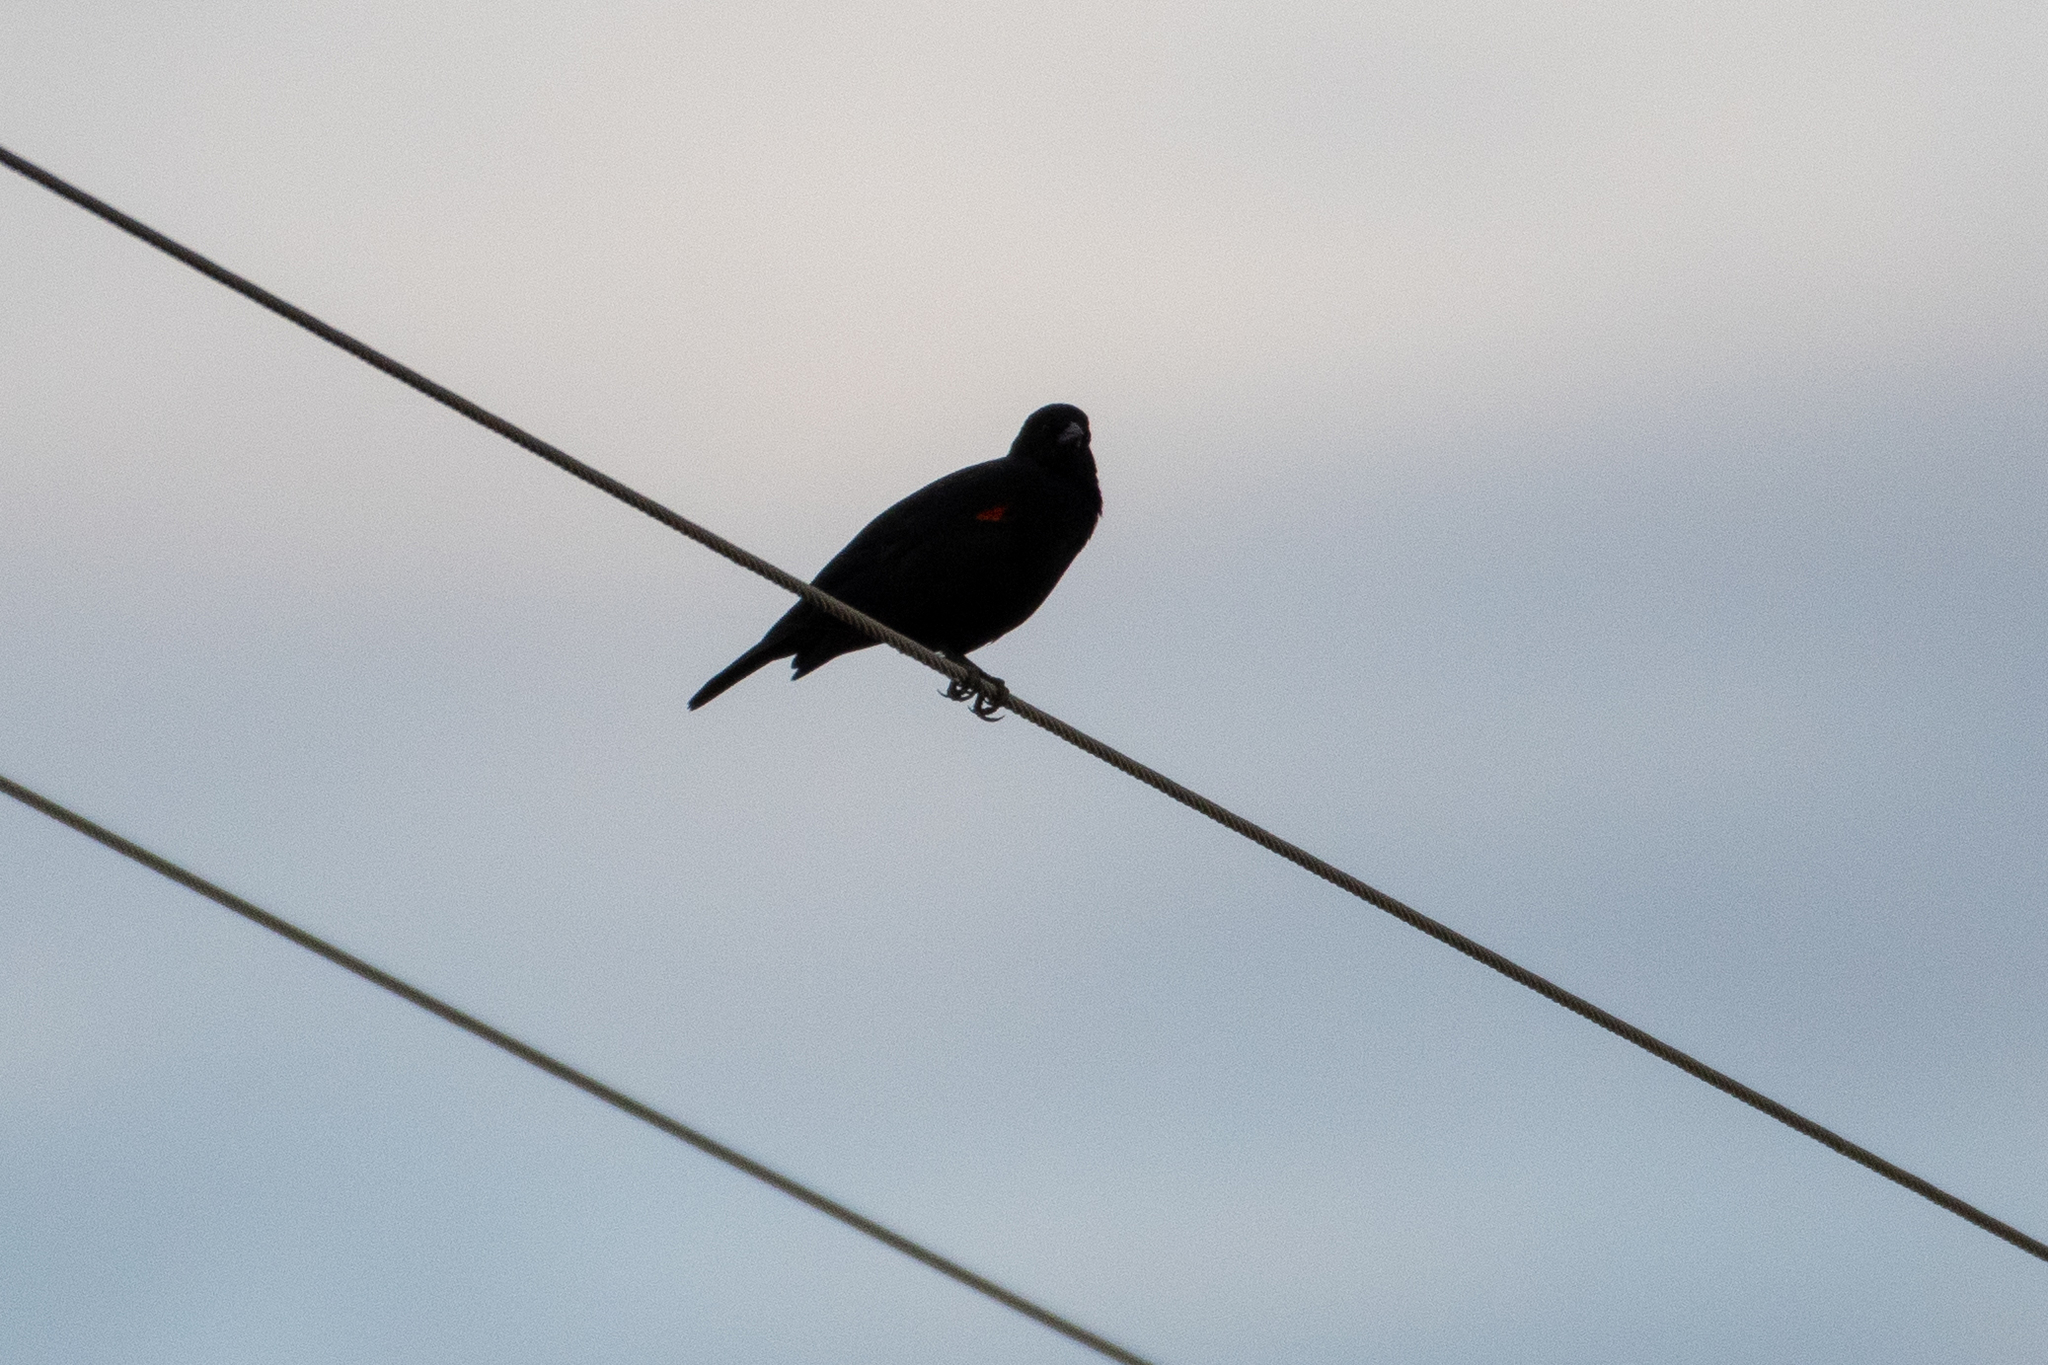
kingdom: Animalia
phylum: Chordata
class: Aves
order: Passeriformes
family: Icteridae
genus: Agelaius
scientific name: Agelaius phoeniceus
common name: Red-winged blackbird
